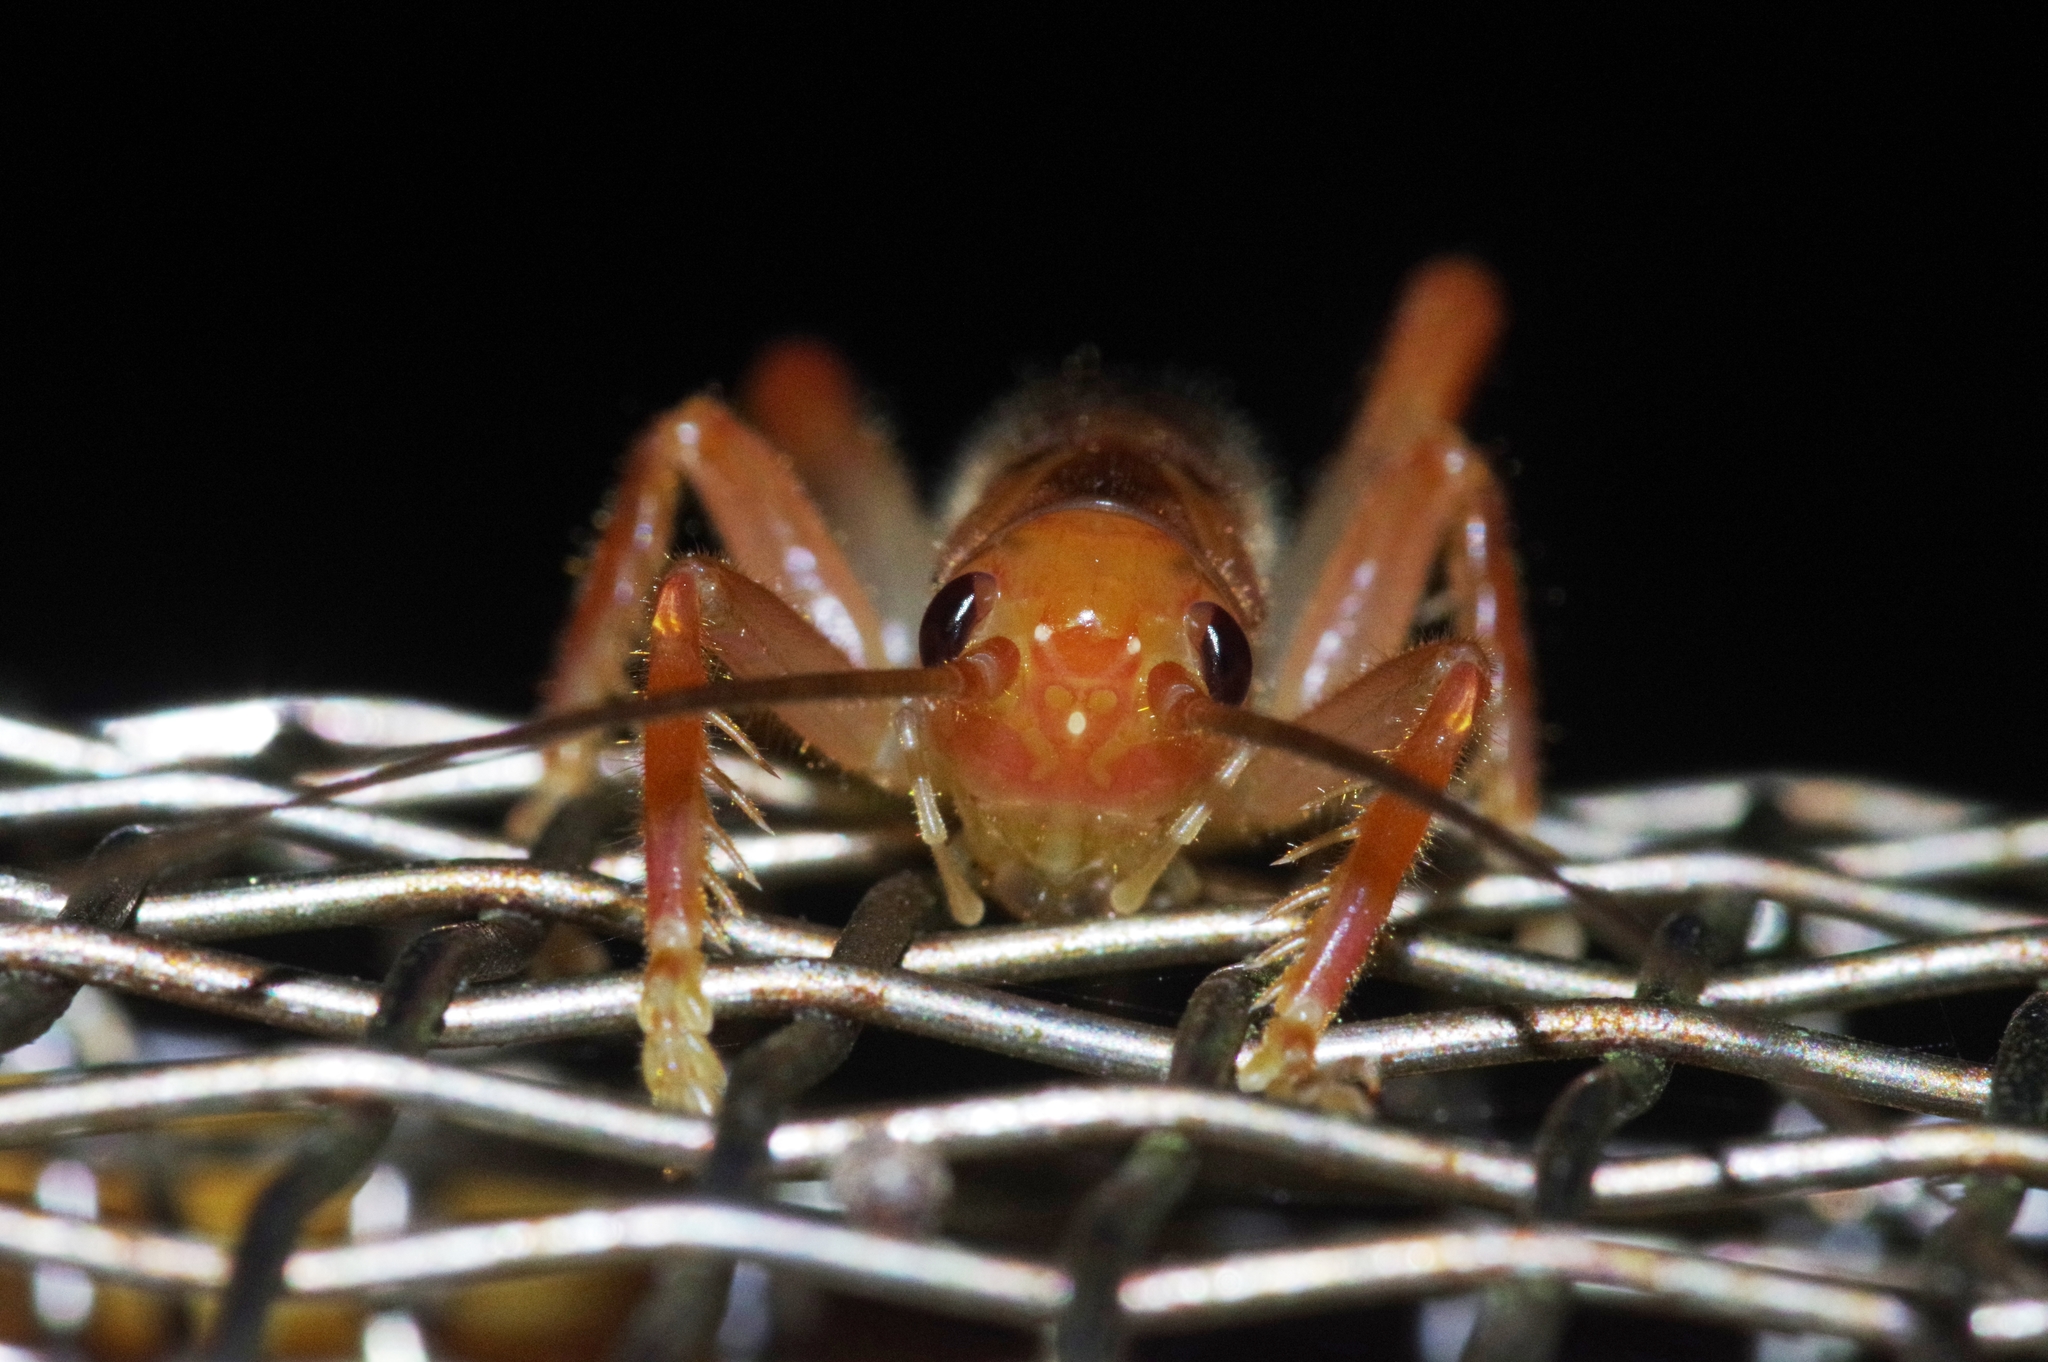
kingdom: Animalia
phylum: Arthropoda
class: Insecta
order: Orthoptera
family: Gryllacrididae
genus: Metriogryllacris
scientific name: Metriogryllacris magna
